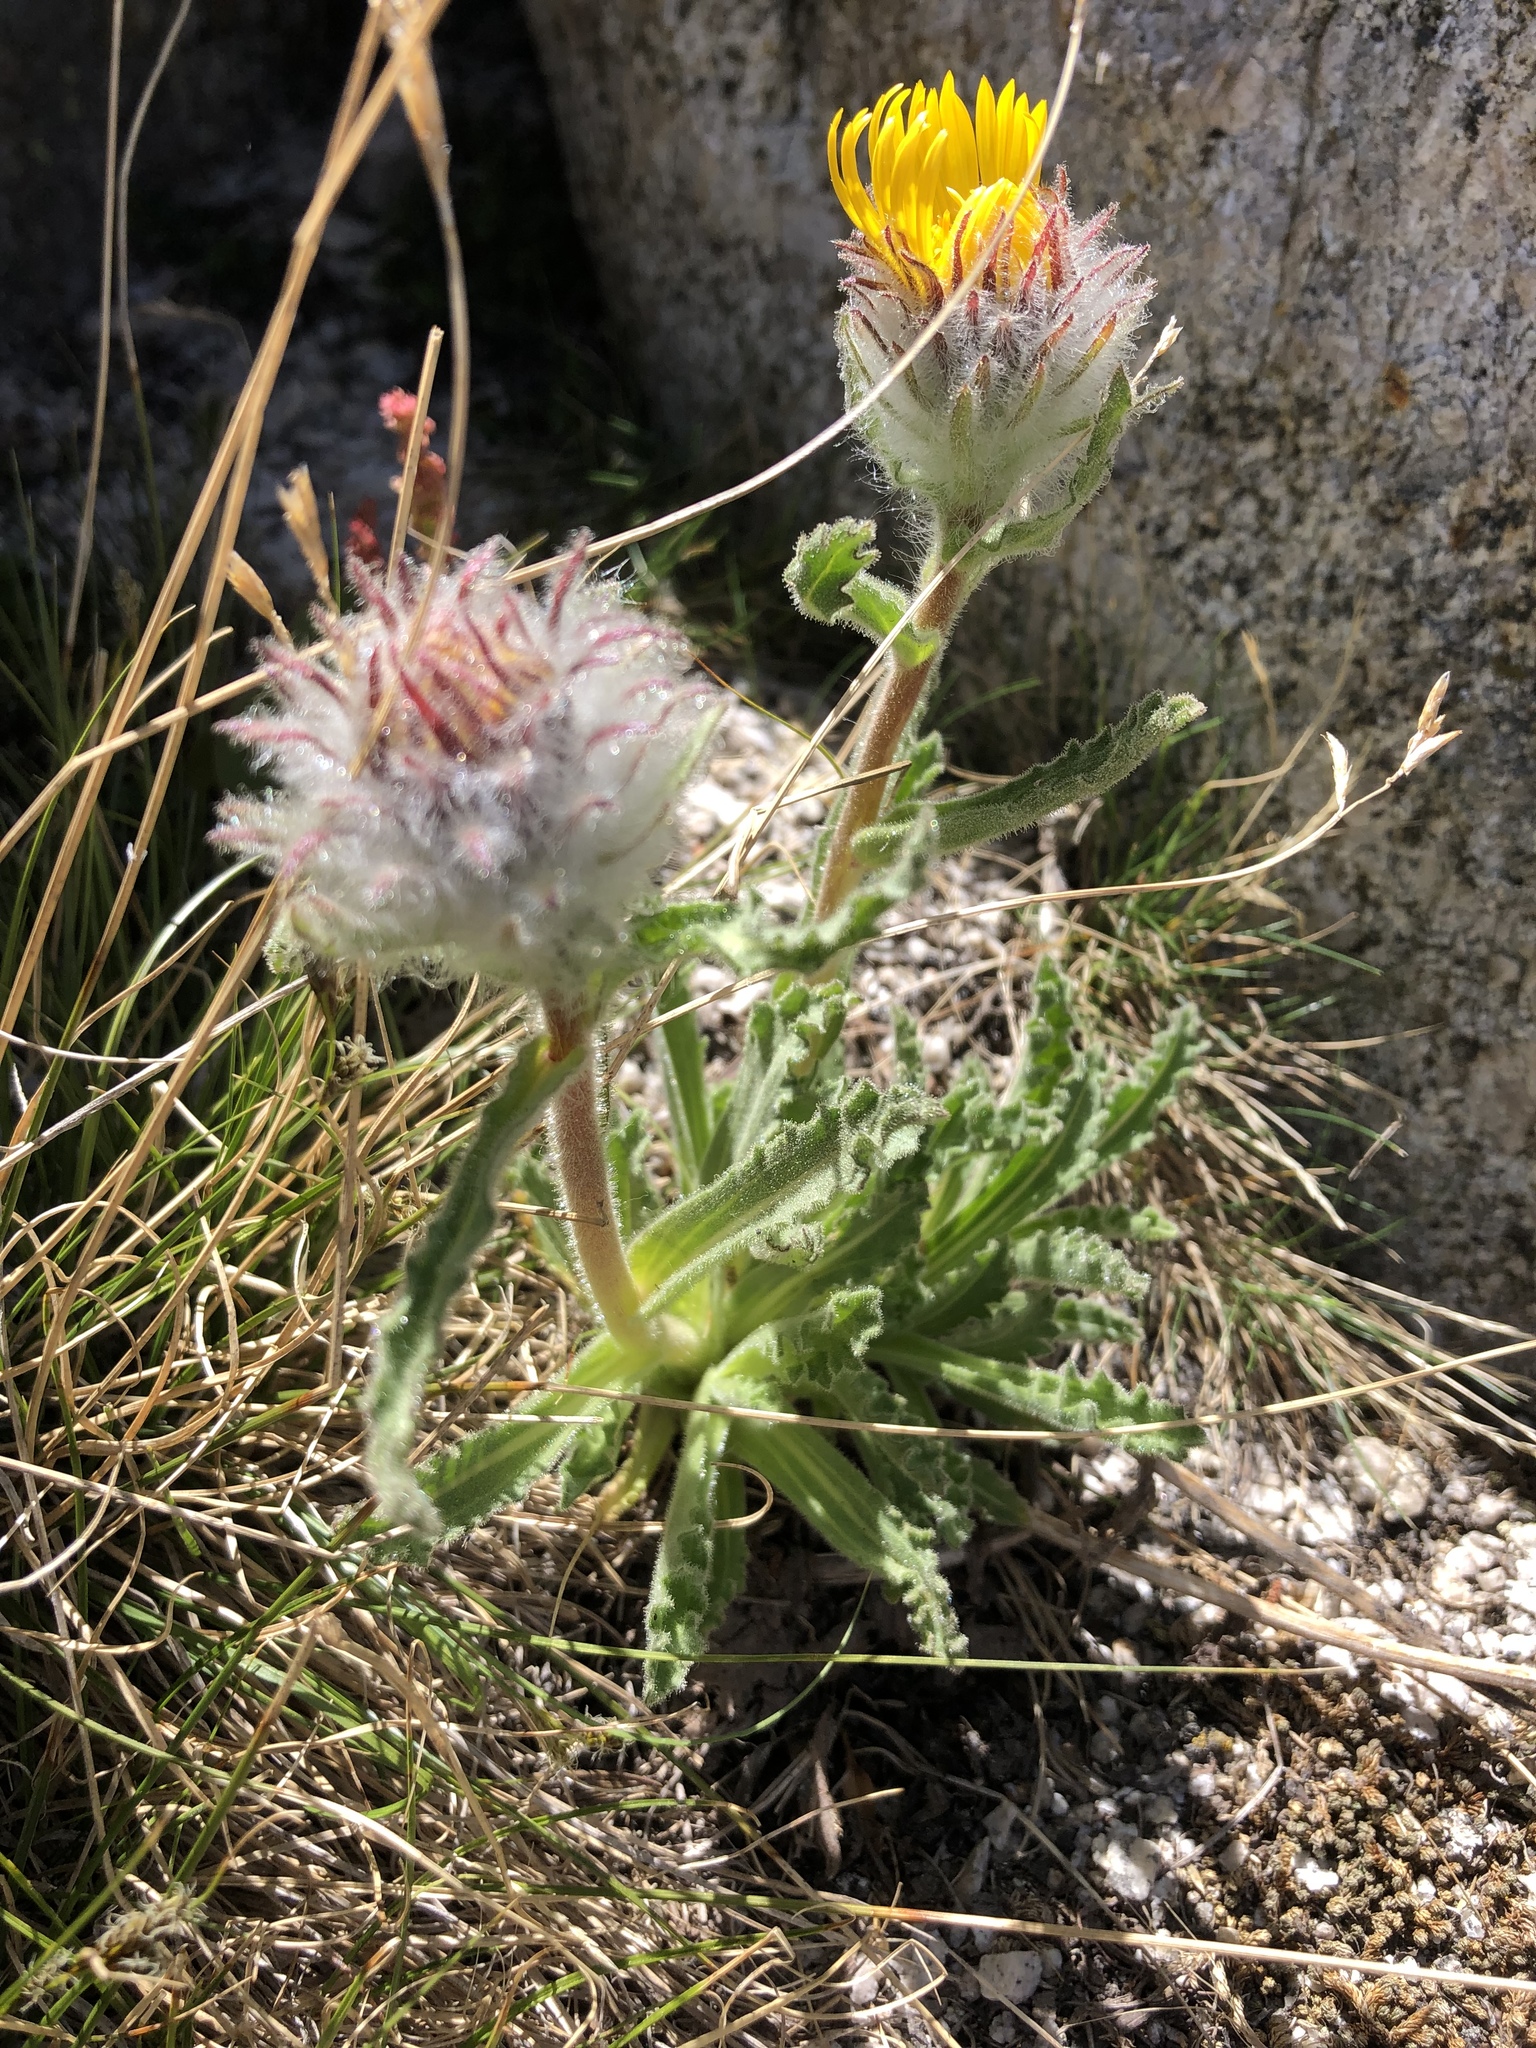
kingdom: Plantae
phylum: Tracheophyta
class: Magnoliopsida
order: Asterales
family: Asteraceae
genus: Hulsea
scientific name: Hulsea algida
